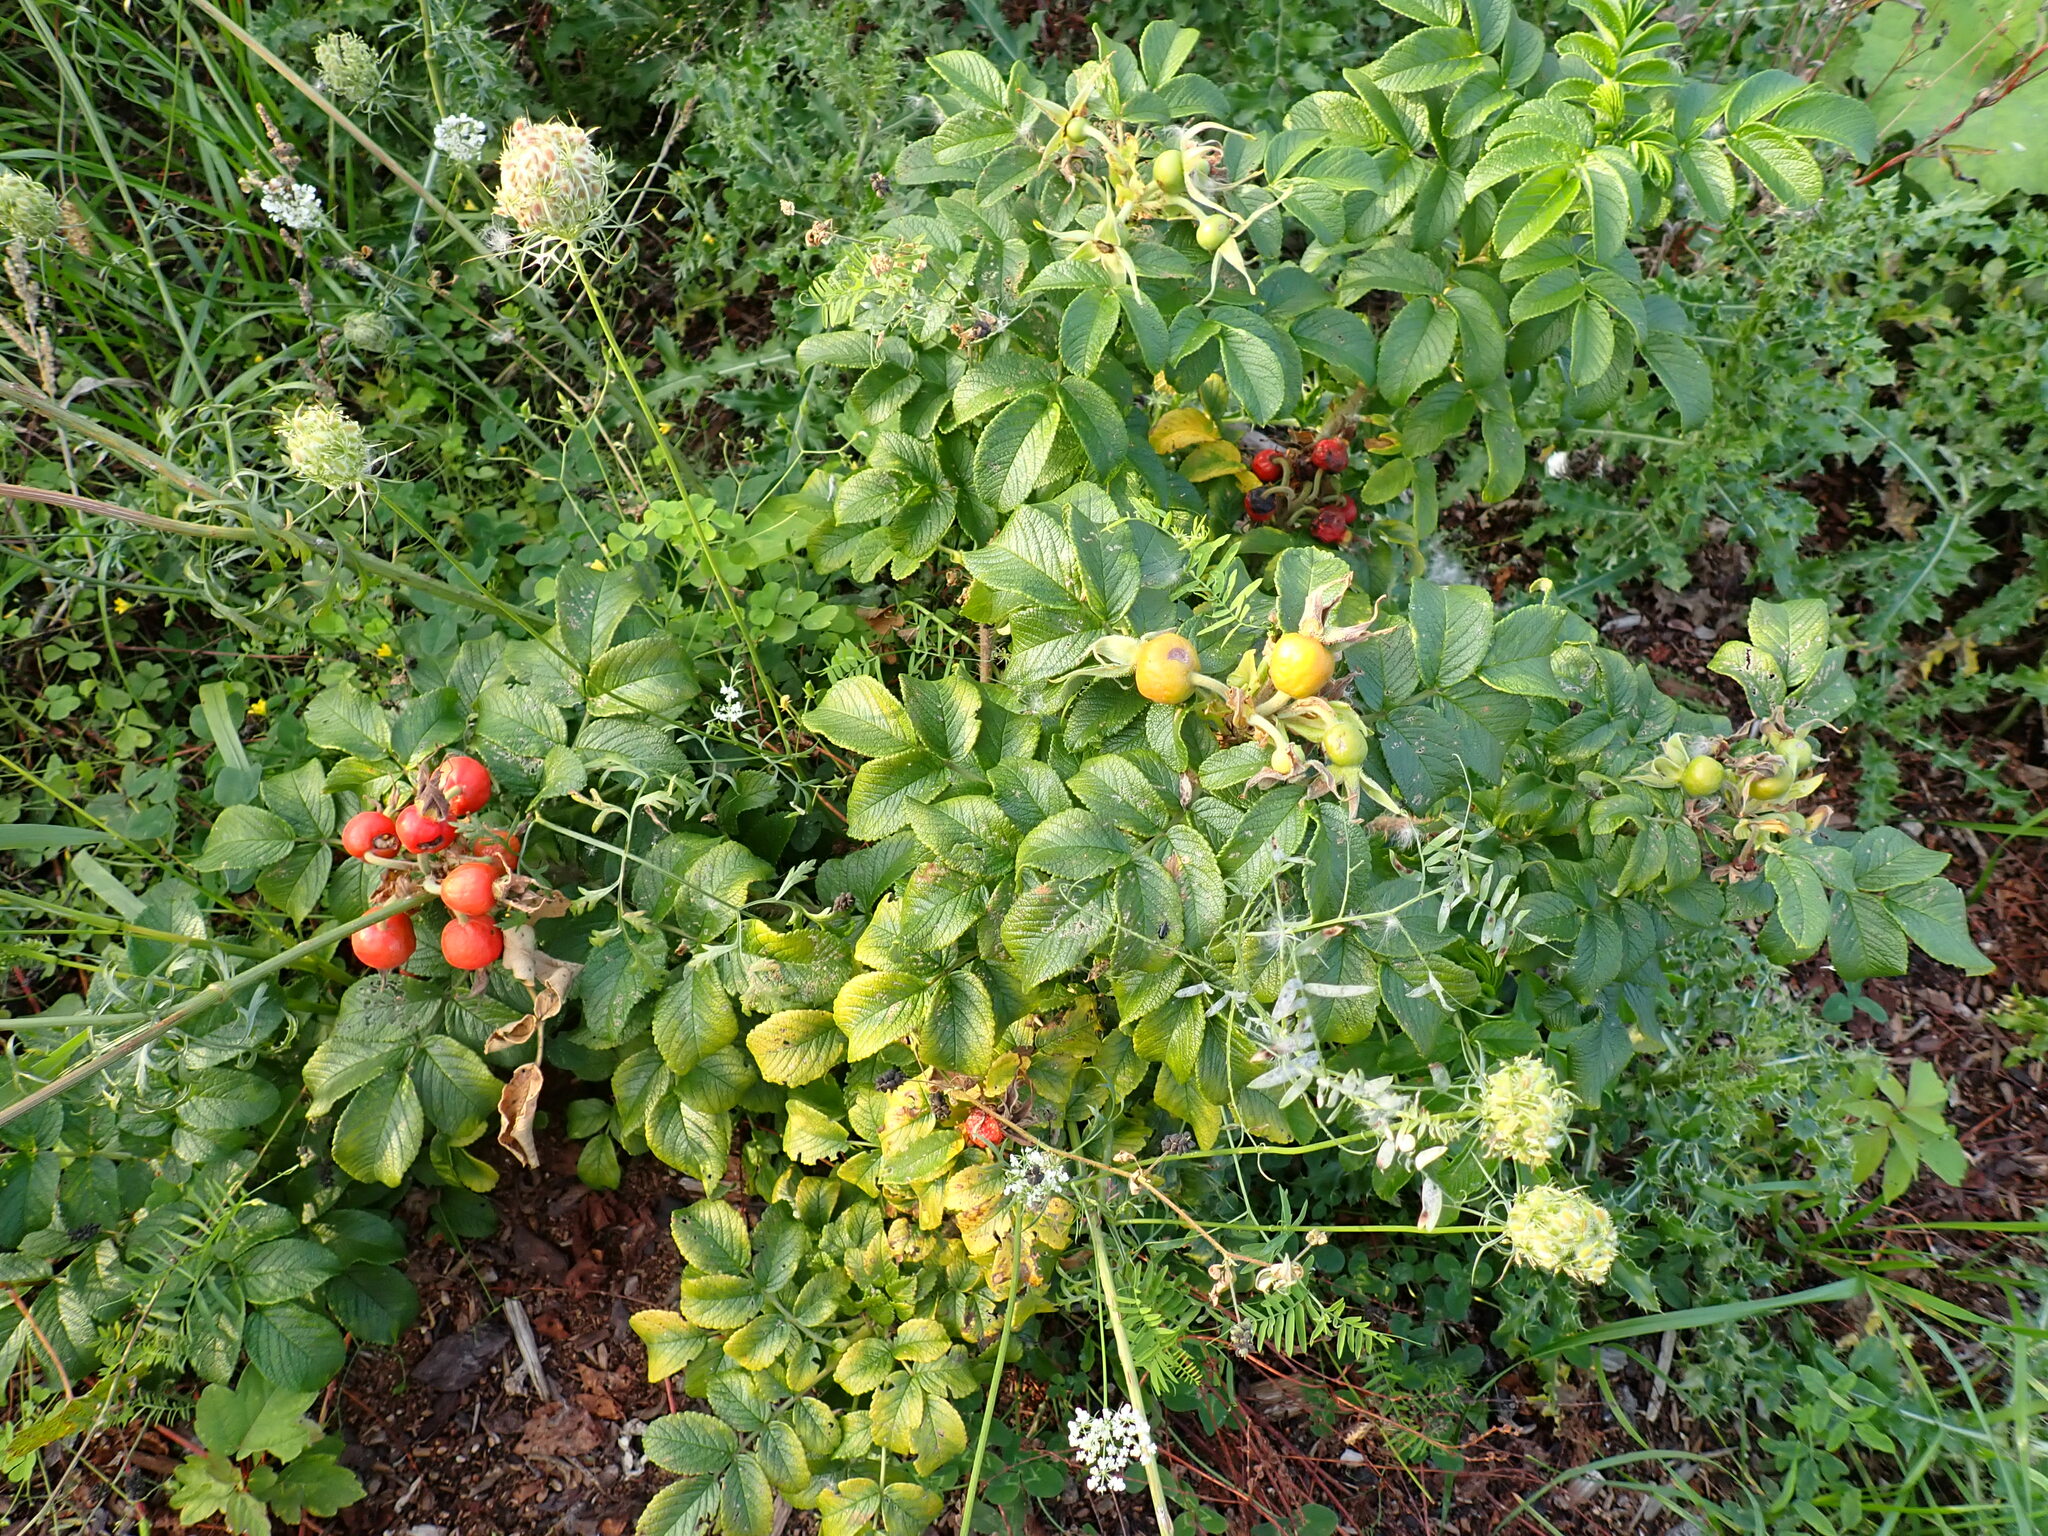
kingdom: Plantae
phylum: Tracheophyta
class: Magnoliopsida
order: Rosales
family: Rosaceae
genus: Rosa
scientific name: Rosa rugosa
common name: Japanese rose
